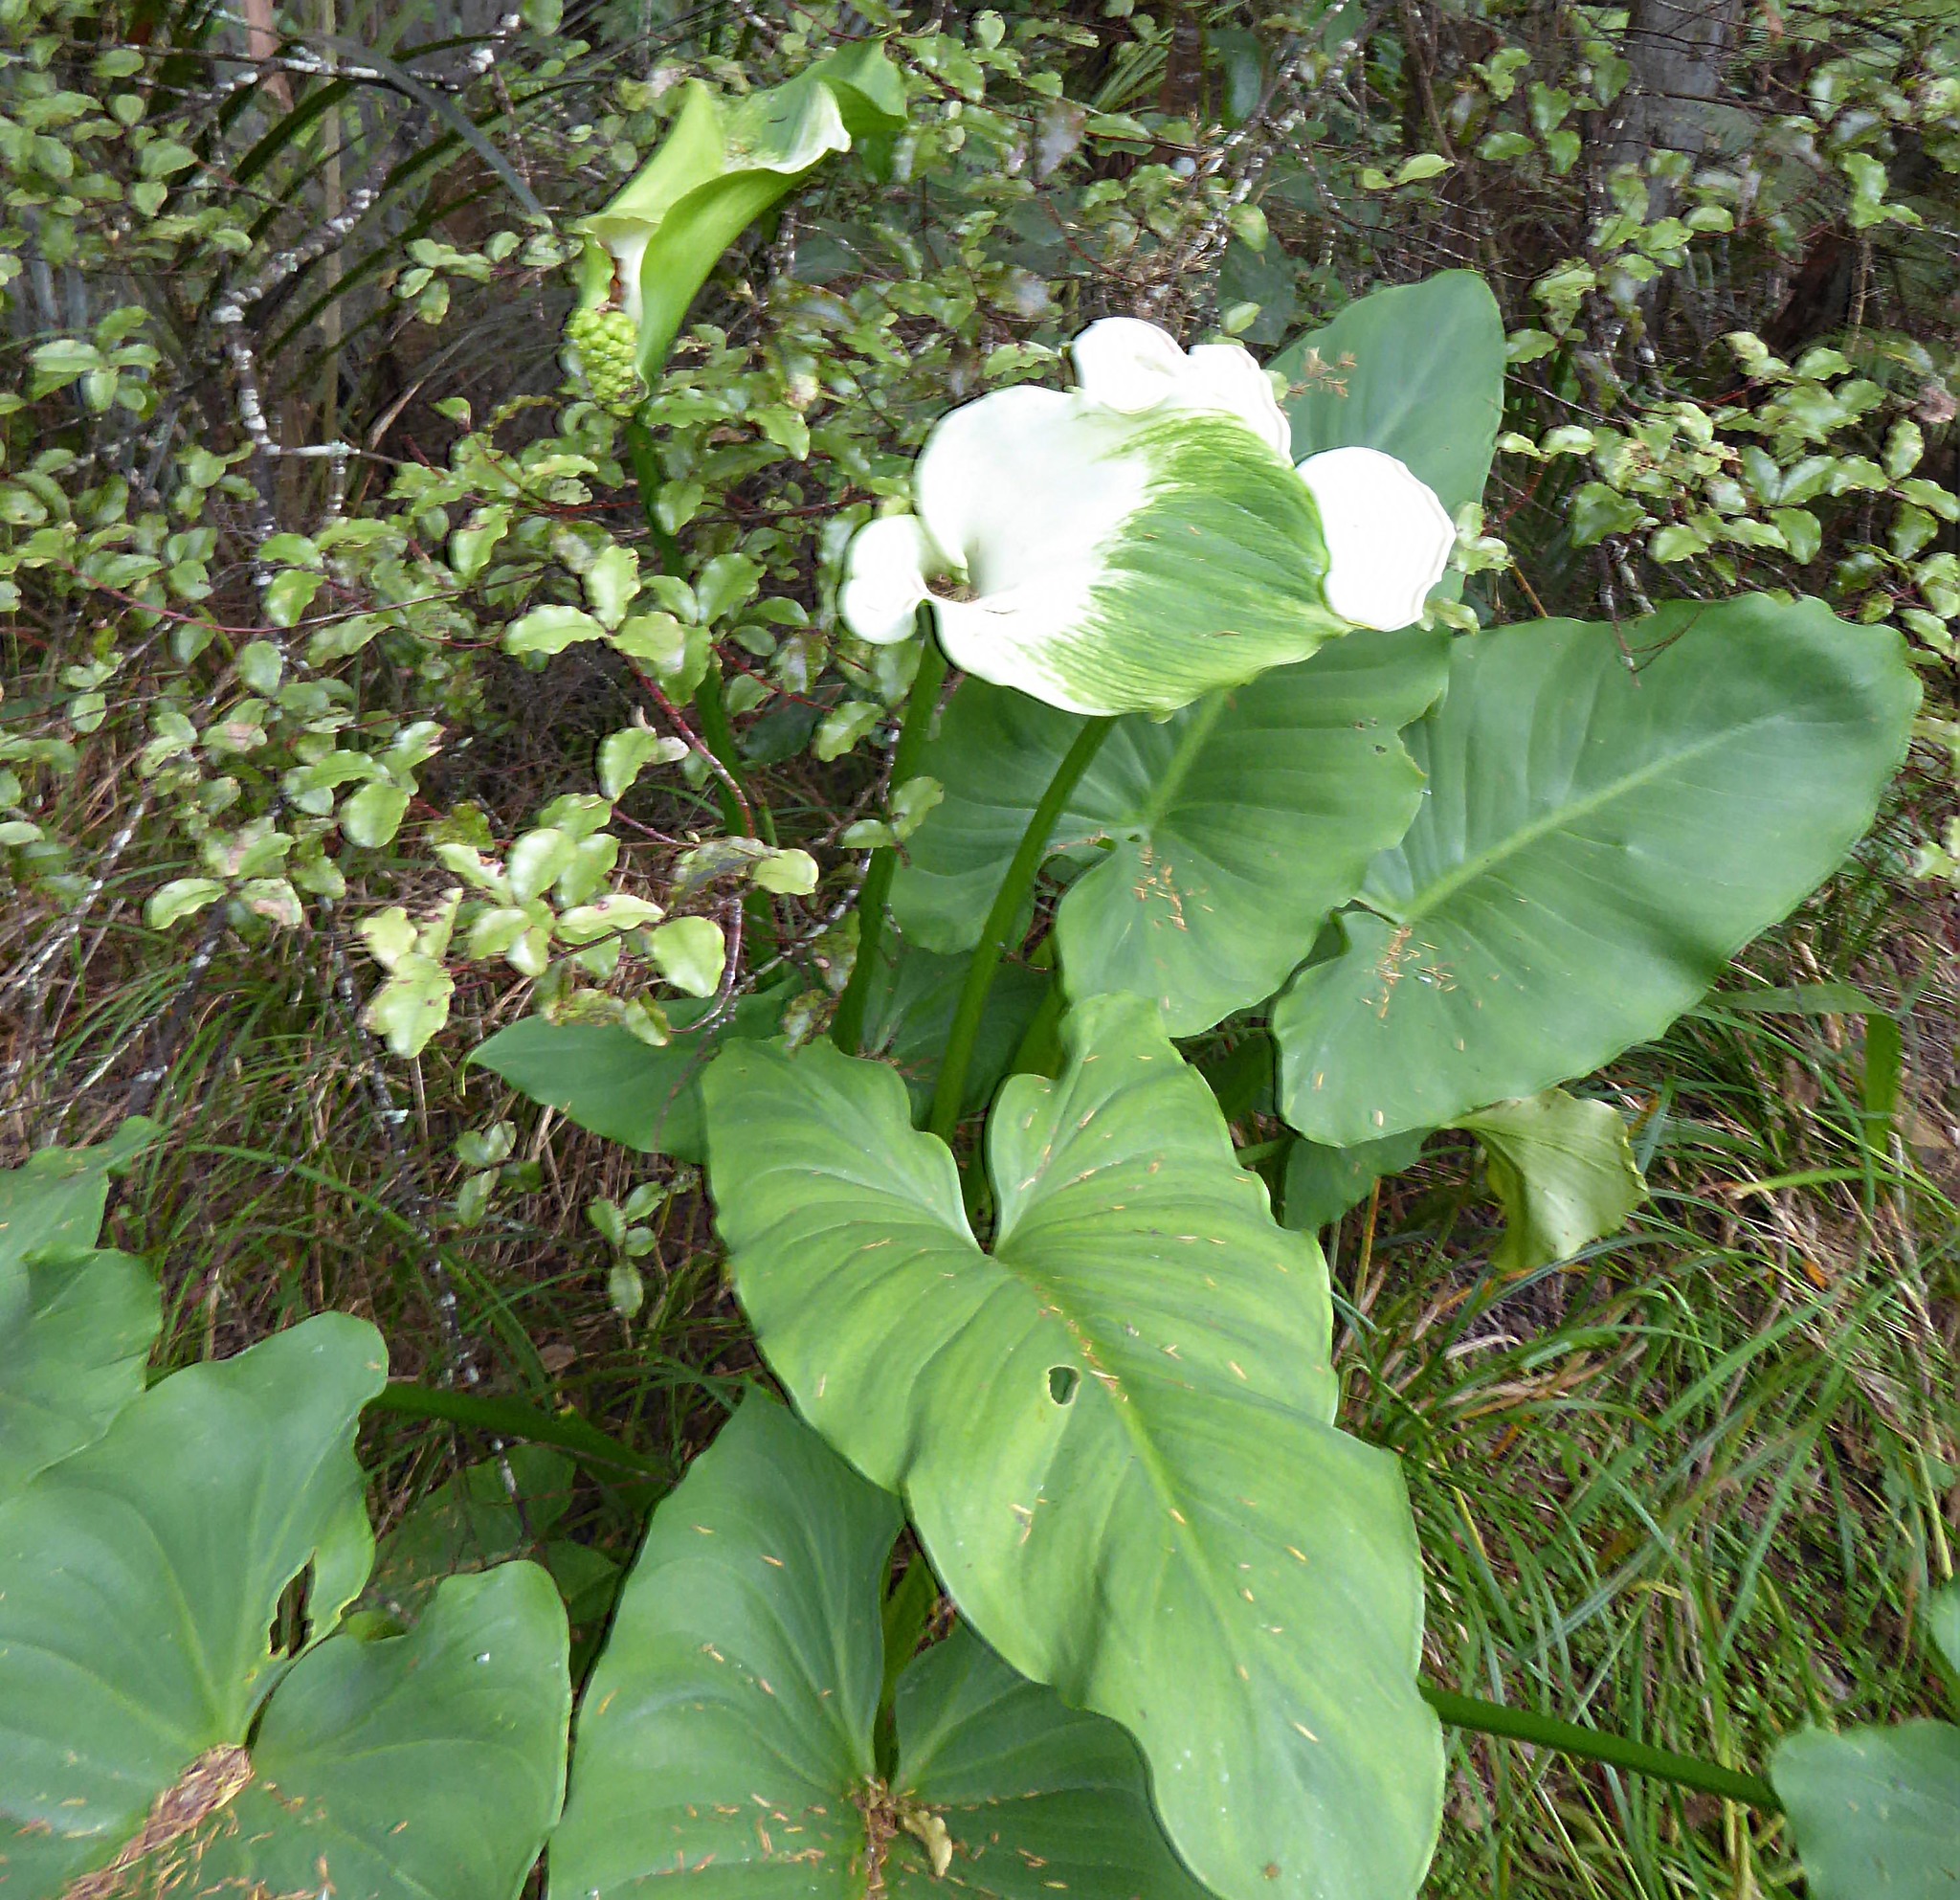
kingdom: Plantae
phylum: Tracheophyta
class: Liliopsida
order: Alismatales
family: Araceae
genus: Zantedeschia
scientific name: Zantedeschia aethiopica
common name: Altar-lily
